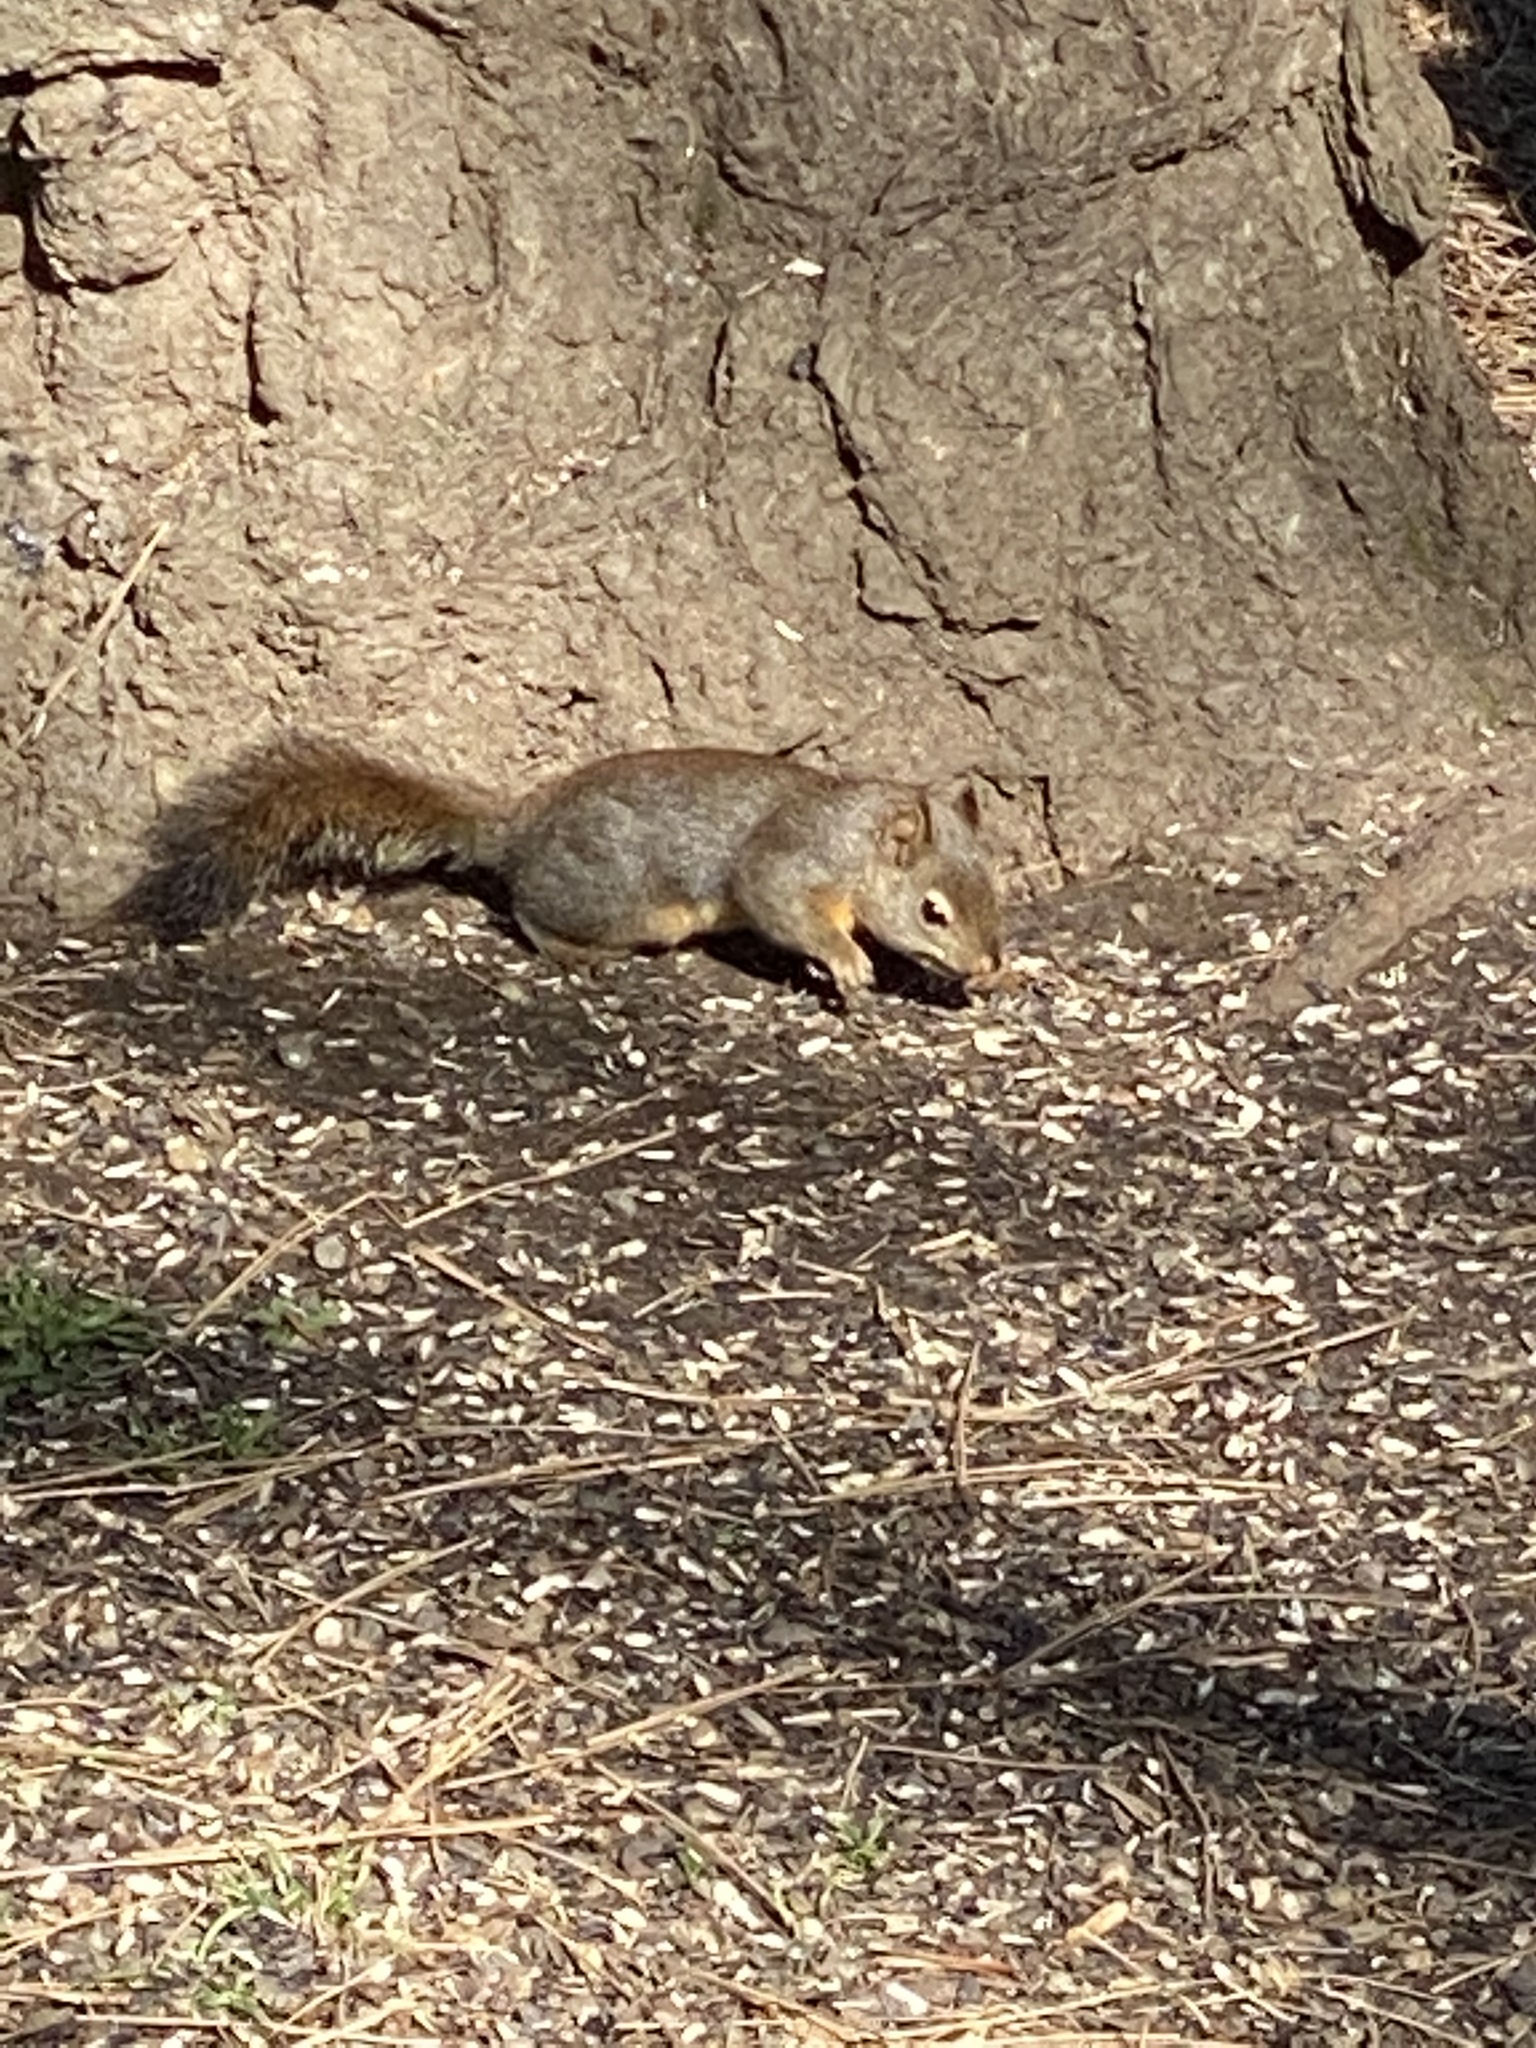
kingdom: Animalia
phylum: Chordata
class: Mammalia
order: Rodentia
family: Sciuridae
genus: Tamiasciurus
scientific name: Tamiasciurus douglasii
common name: Douglas's squirrel
